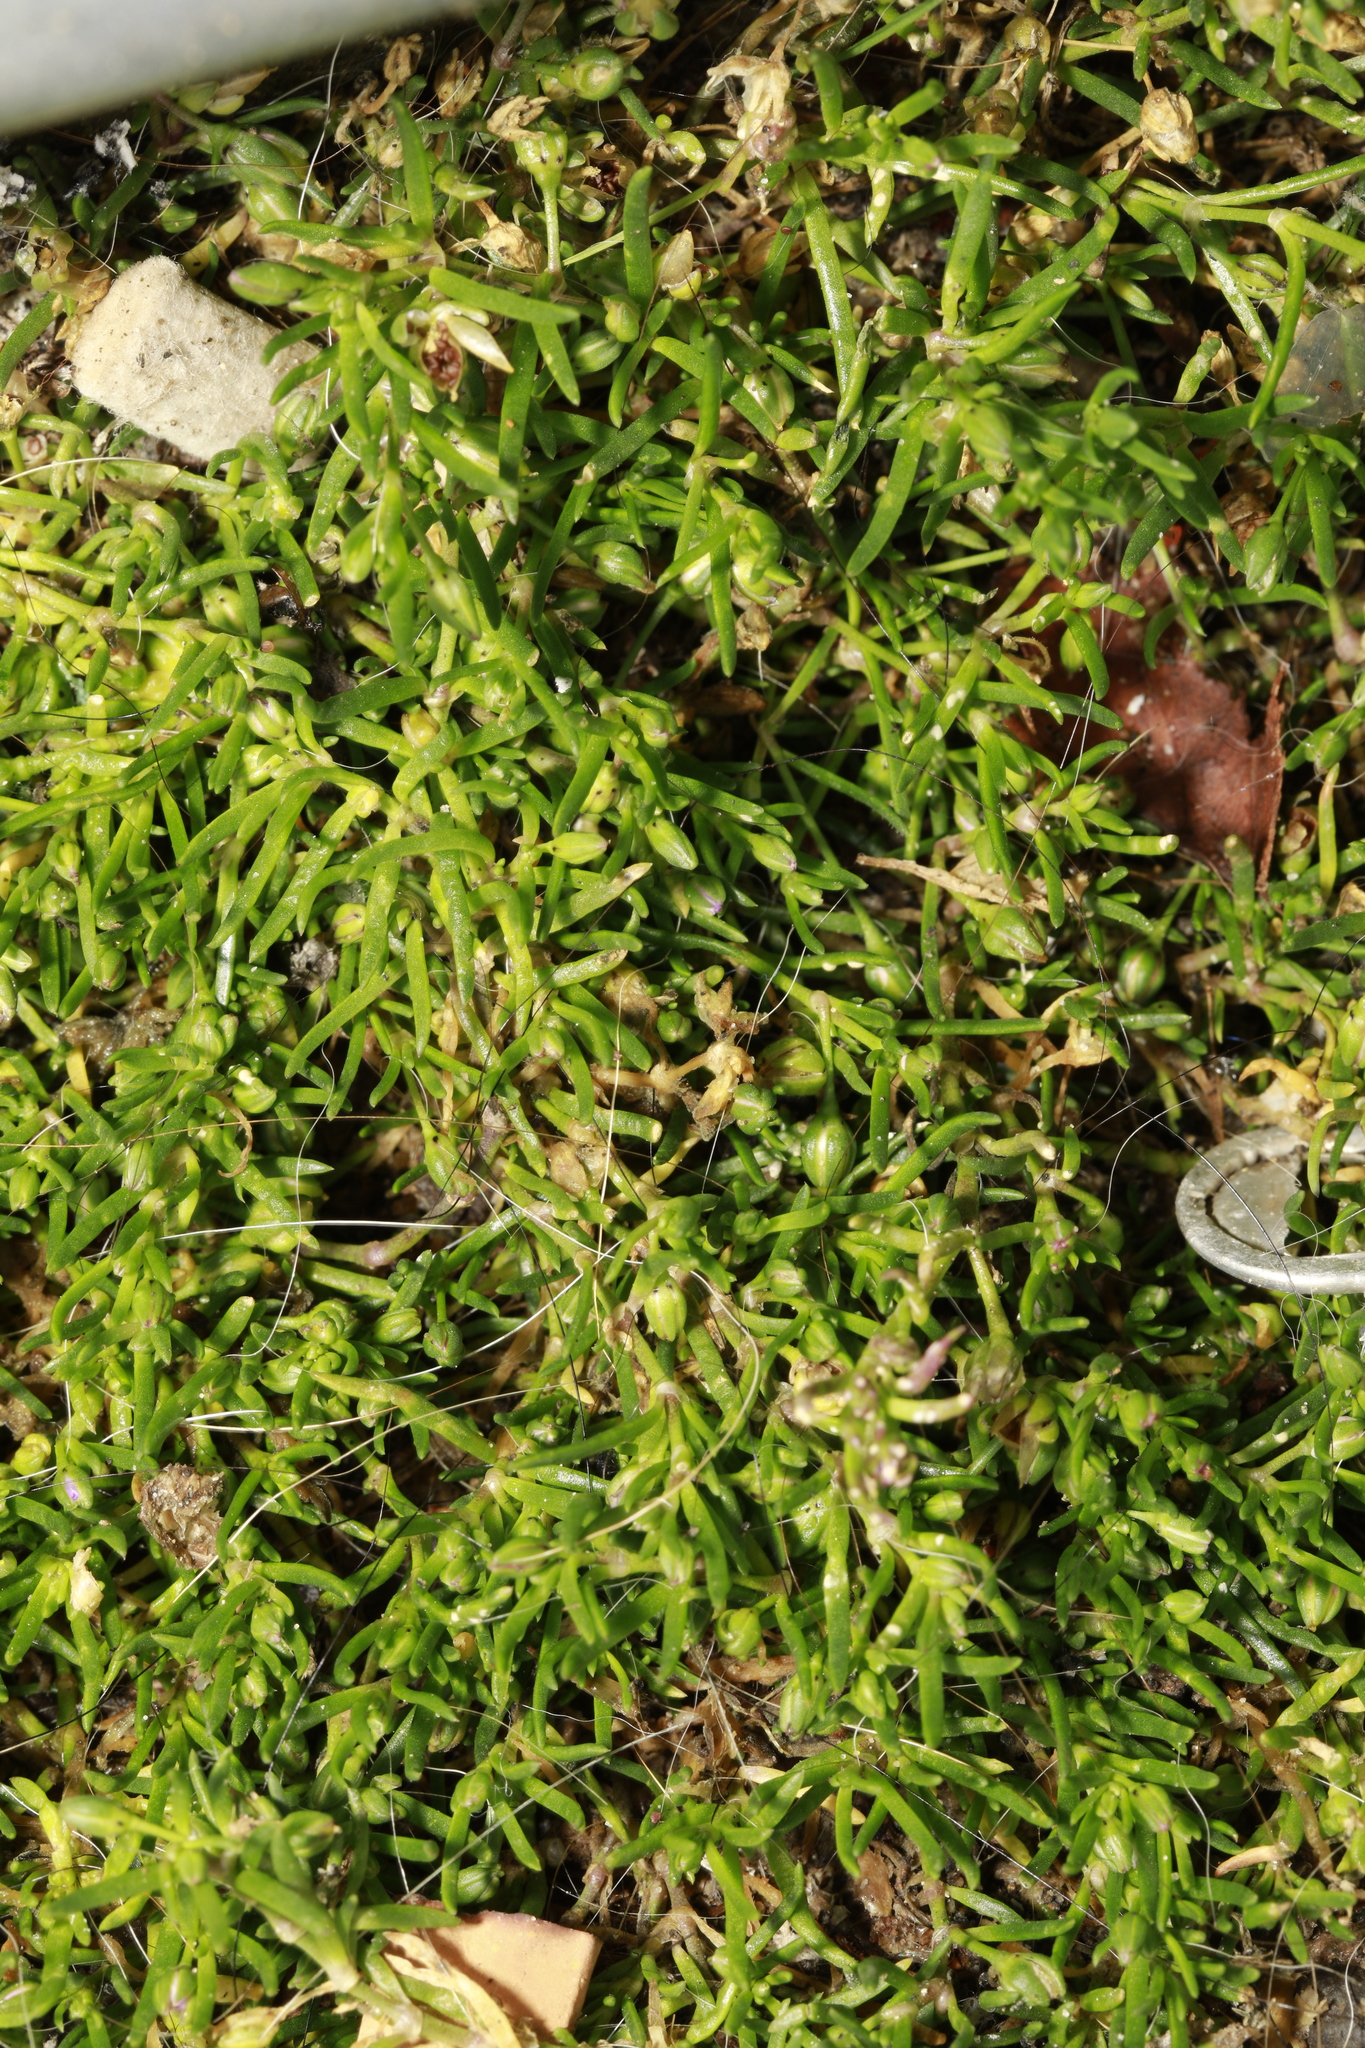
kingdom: Plantae
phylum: Tracheophyta
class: Magnoliopsida
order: Caryophyllales
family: Caryophyllaceae
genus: Sagina
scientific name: Sagina procumbens
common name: Procumbent pearlwort
